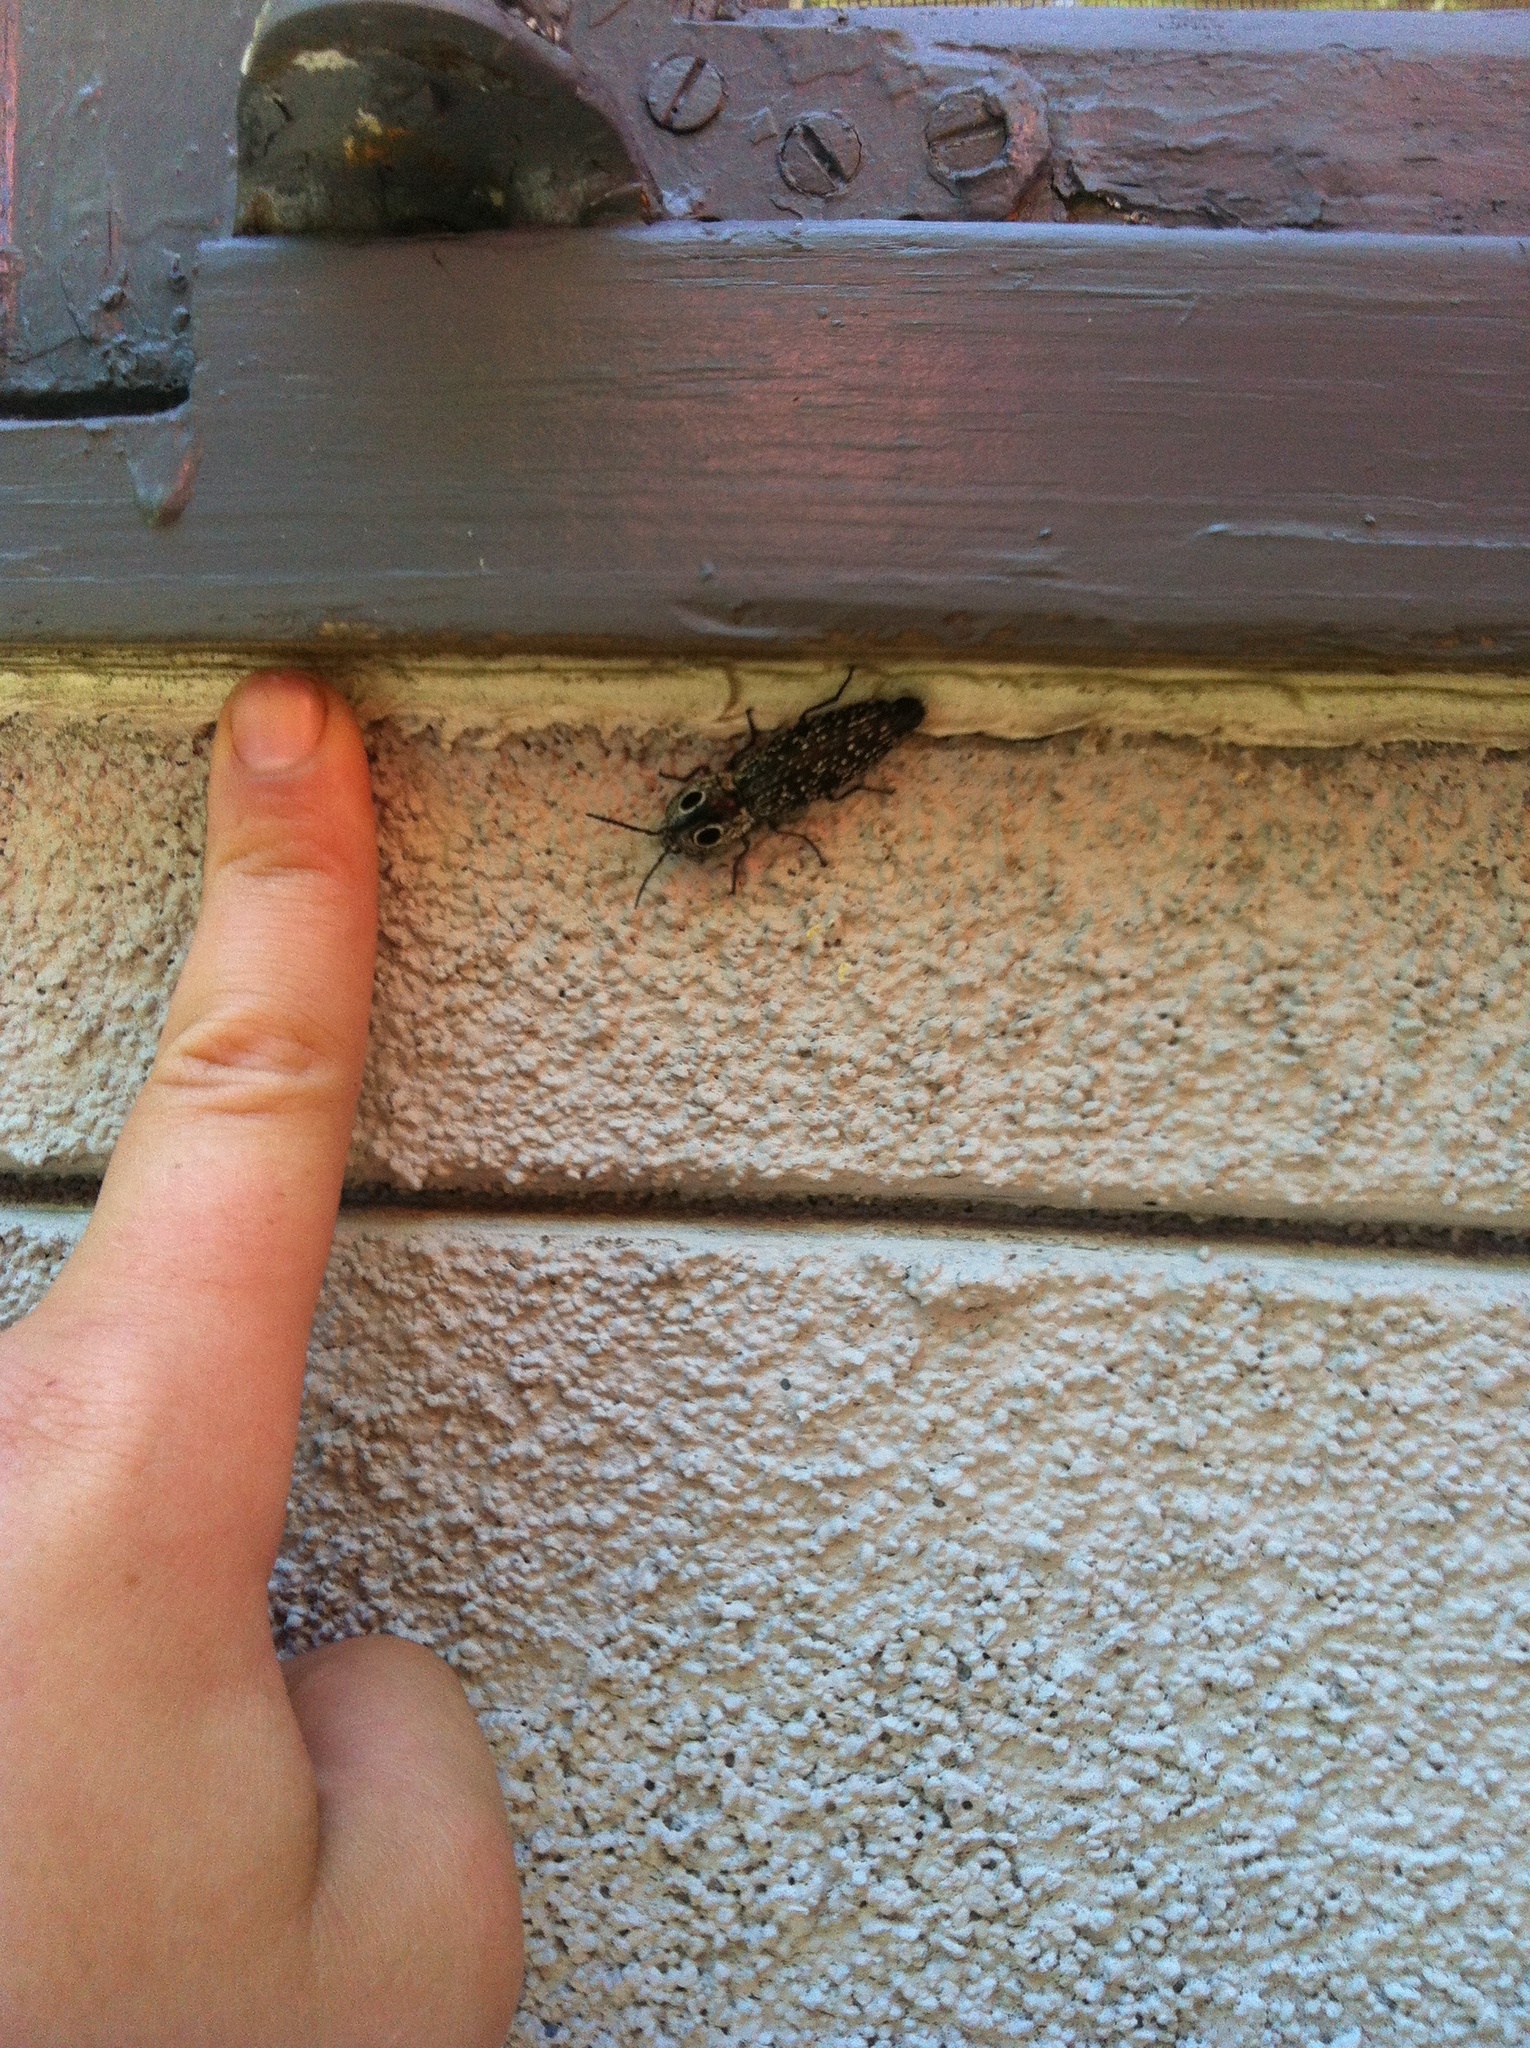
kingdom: Animalia
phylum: Arthropoda
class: Insecta
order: Coleoptera
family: Elateridae
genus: Alaus
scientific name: Alaus oculatus
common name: Eastern eyed click beetle
